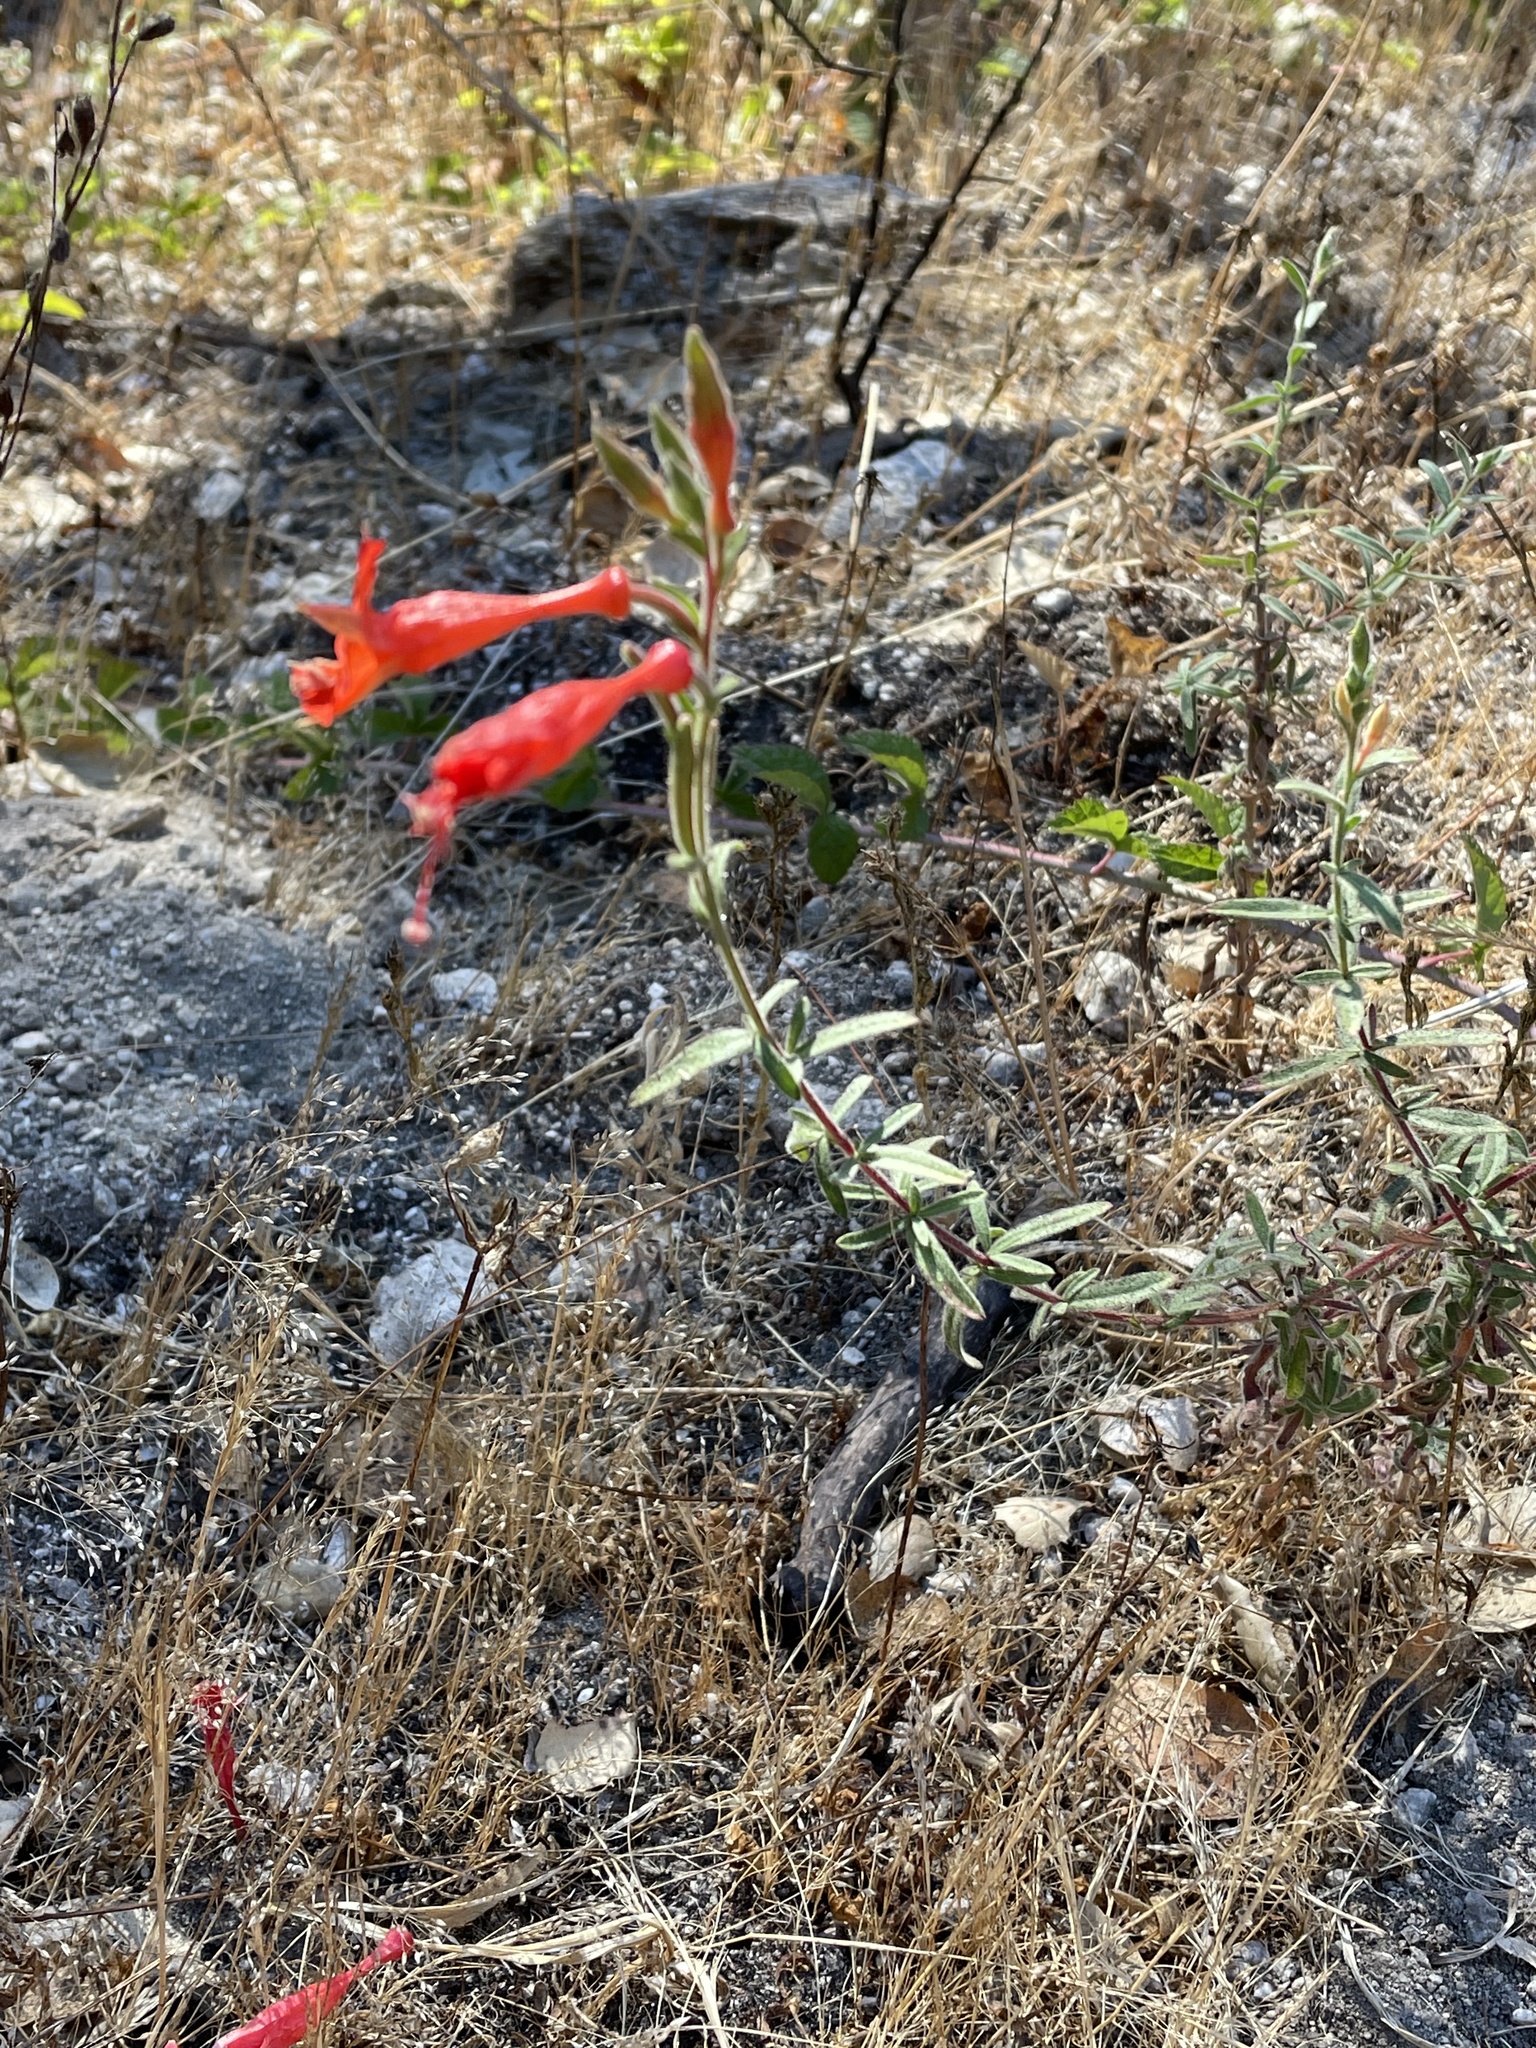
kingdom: Plantae
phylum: Tracheophyta
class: Magnoliopsida
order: Myrtales
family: Onagraceae
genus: Epilobium
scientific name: Epilobium canum
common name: California-fuchsia
